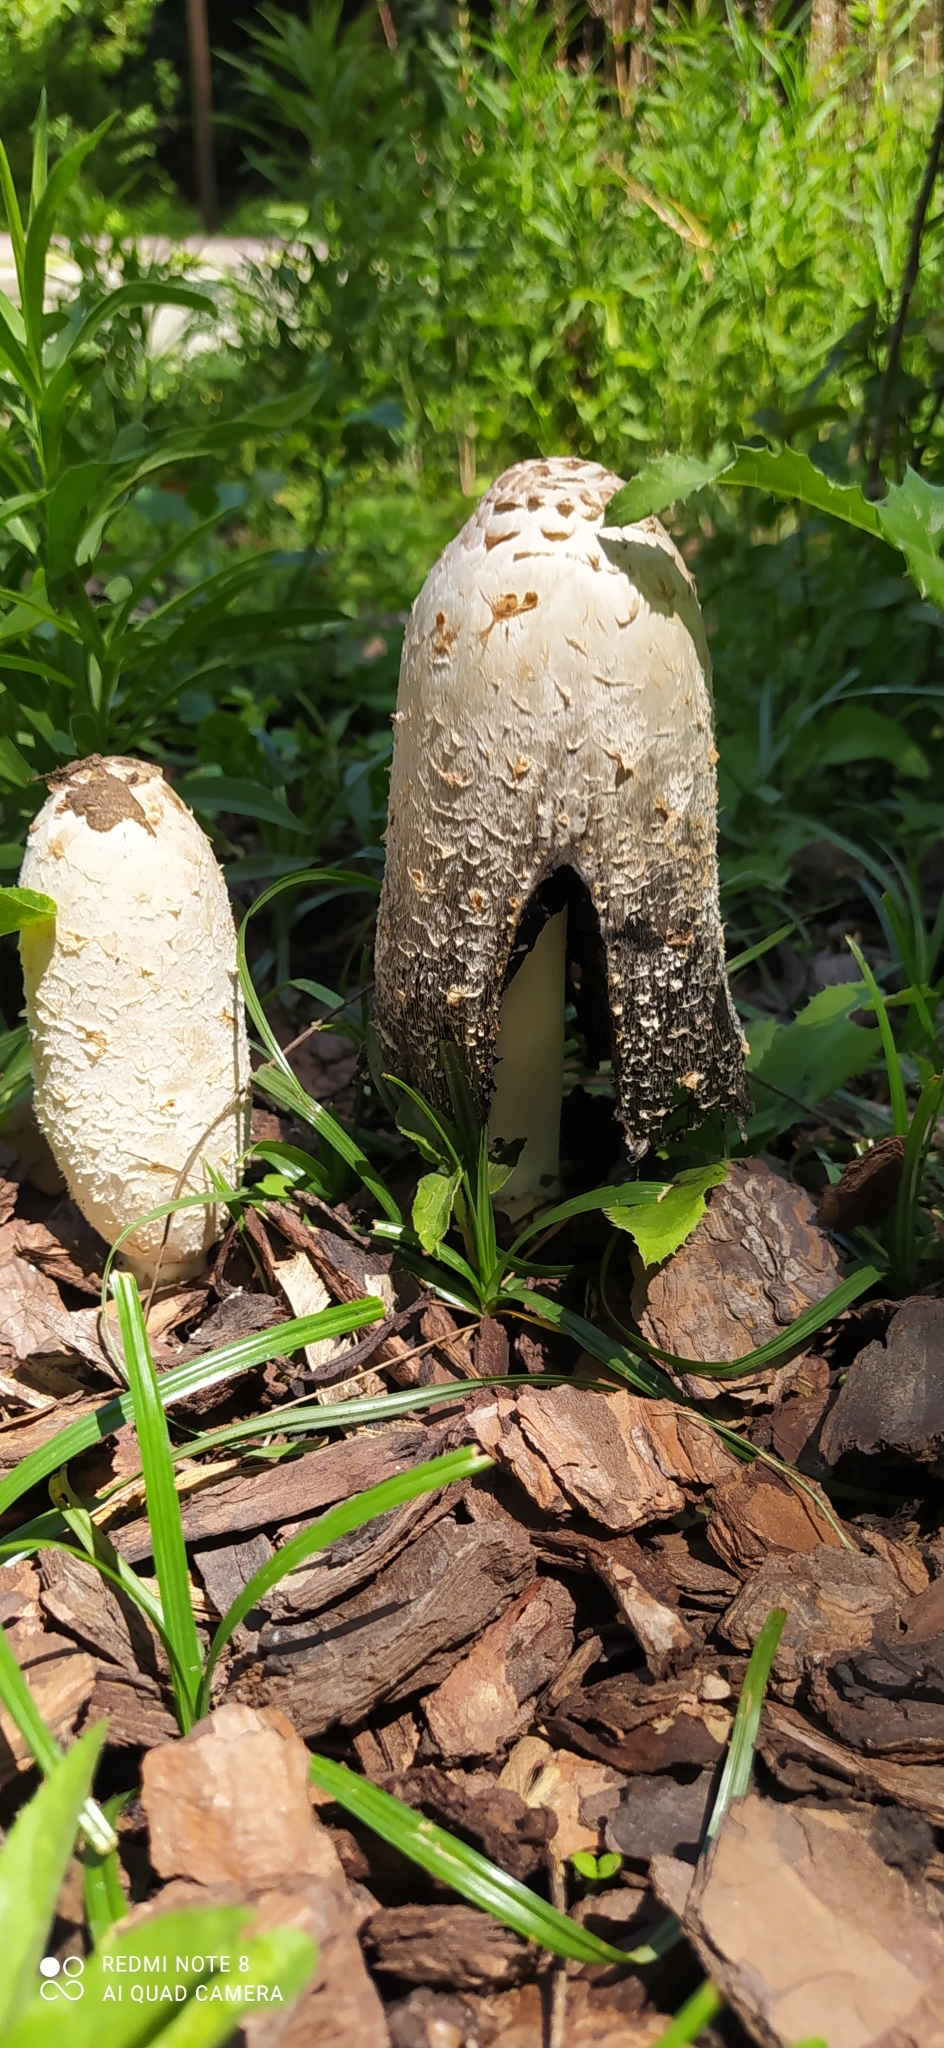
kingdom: Fungi
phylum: Basidiomycota
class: Agaricomycetes
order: Agaricales
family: Agaricaceae
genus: Coprinus
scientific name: Coprinus comatus
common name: Lawyer's wig
